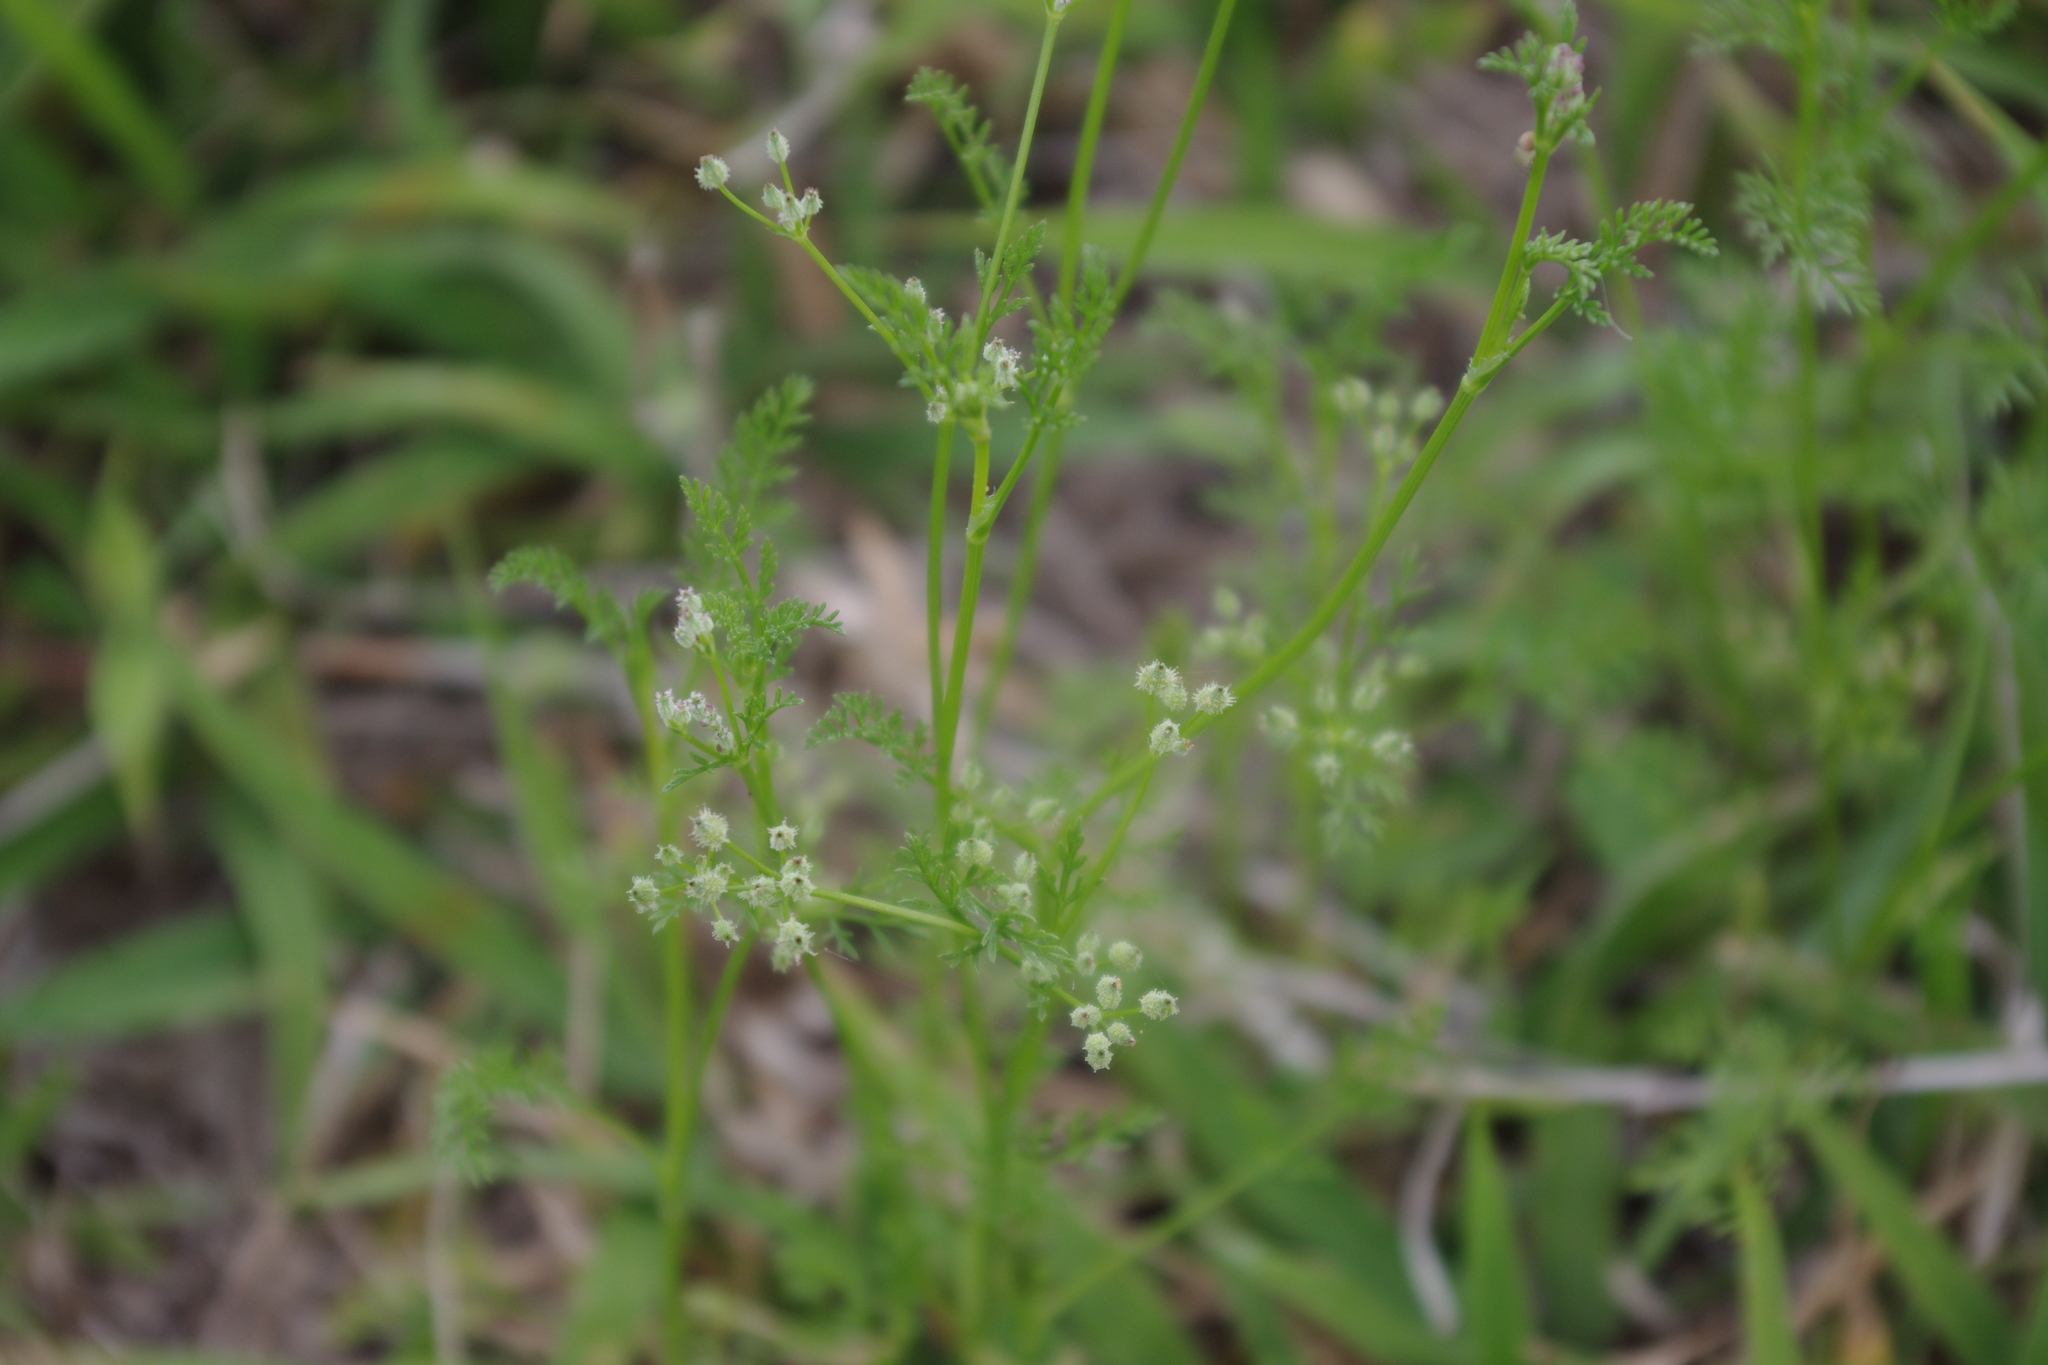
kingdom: Plantae
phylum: Tracheophyta
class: Magnoliopsida
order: Apiales
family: Apiaceae
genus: Daucus
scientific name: Daucus glochidiatus
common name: Australian carrot
